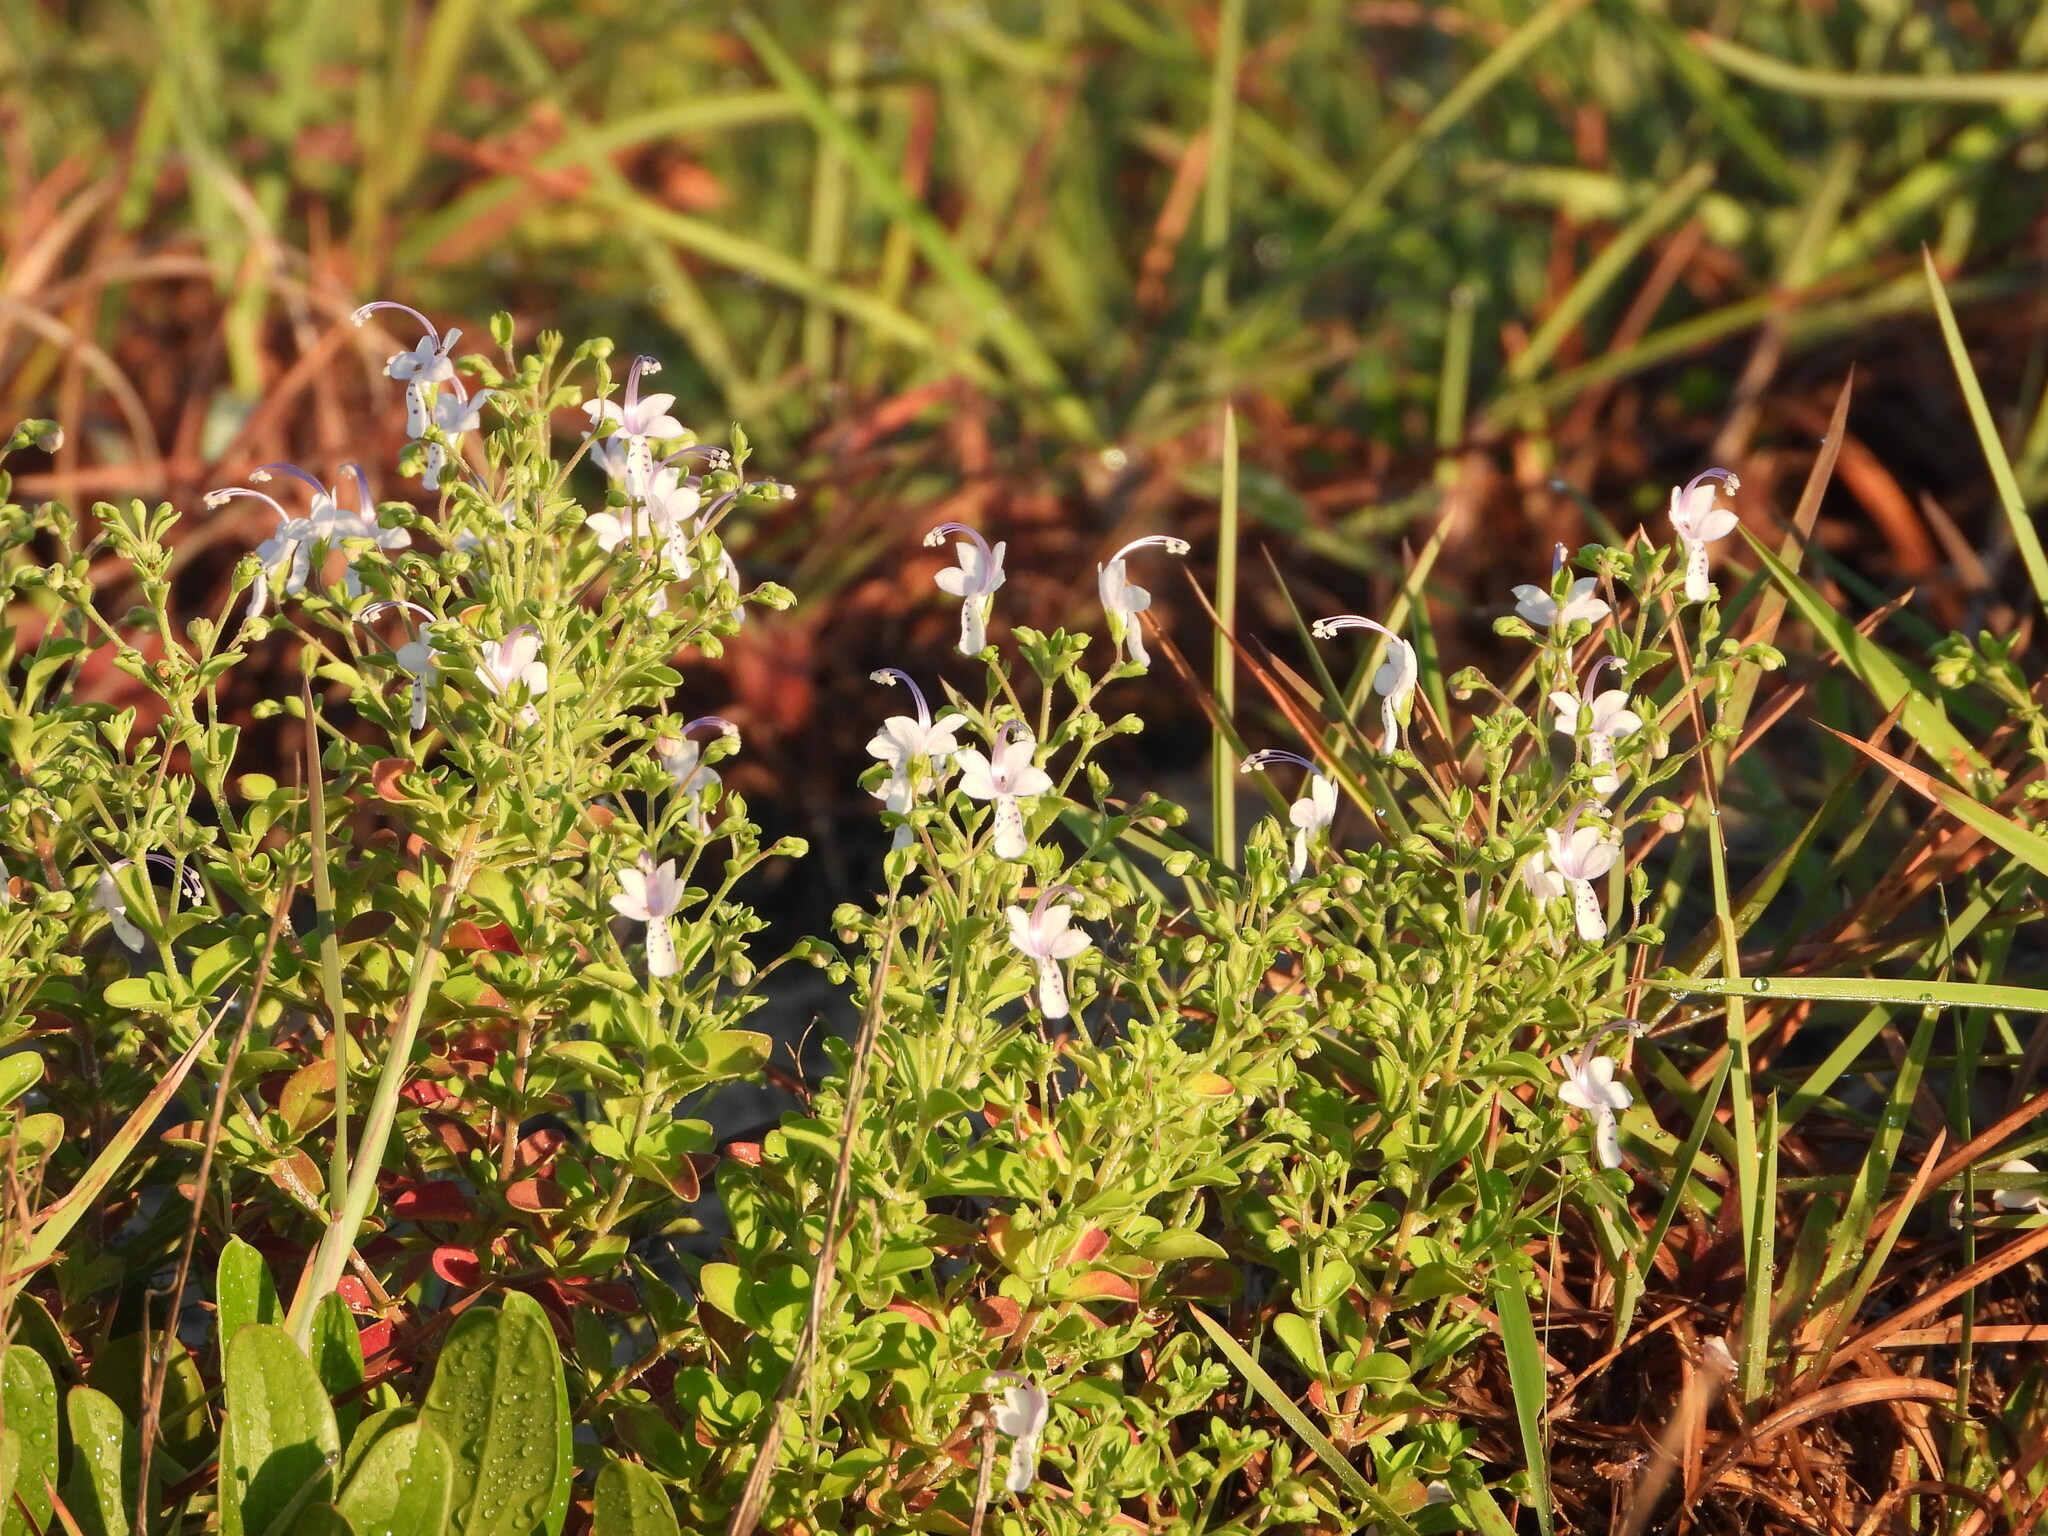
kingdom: Plantae
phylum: Tracheophyta
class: Magnoliopsida
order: Lamiales
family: Lamiaceae
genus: Trichostema
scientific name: Trichostema nesophilum
